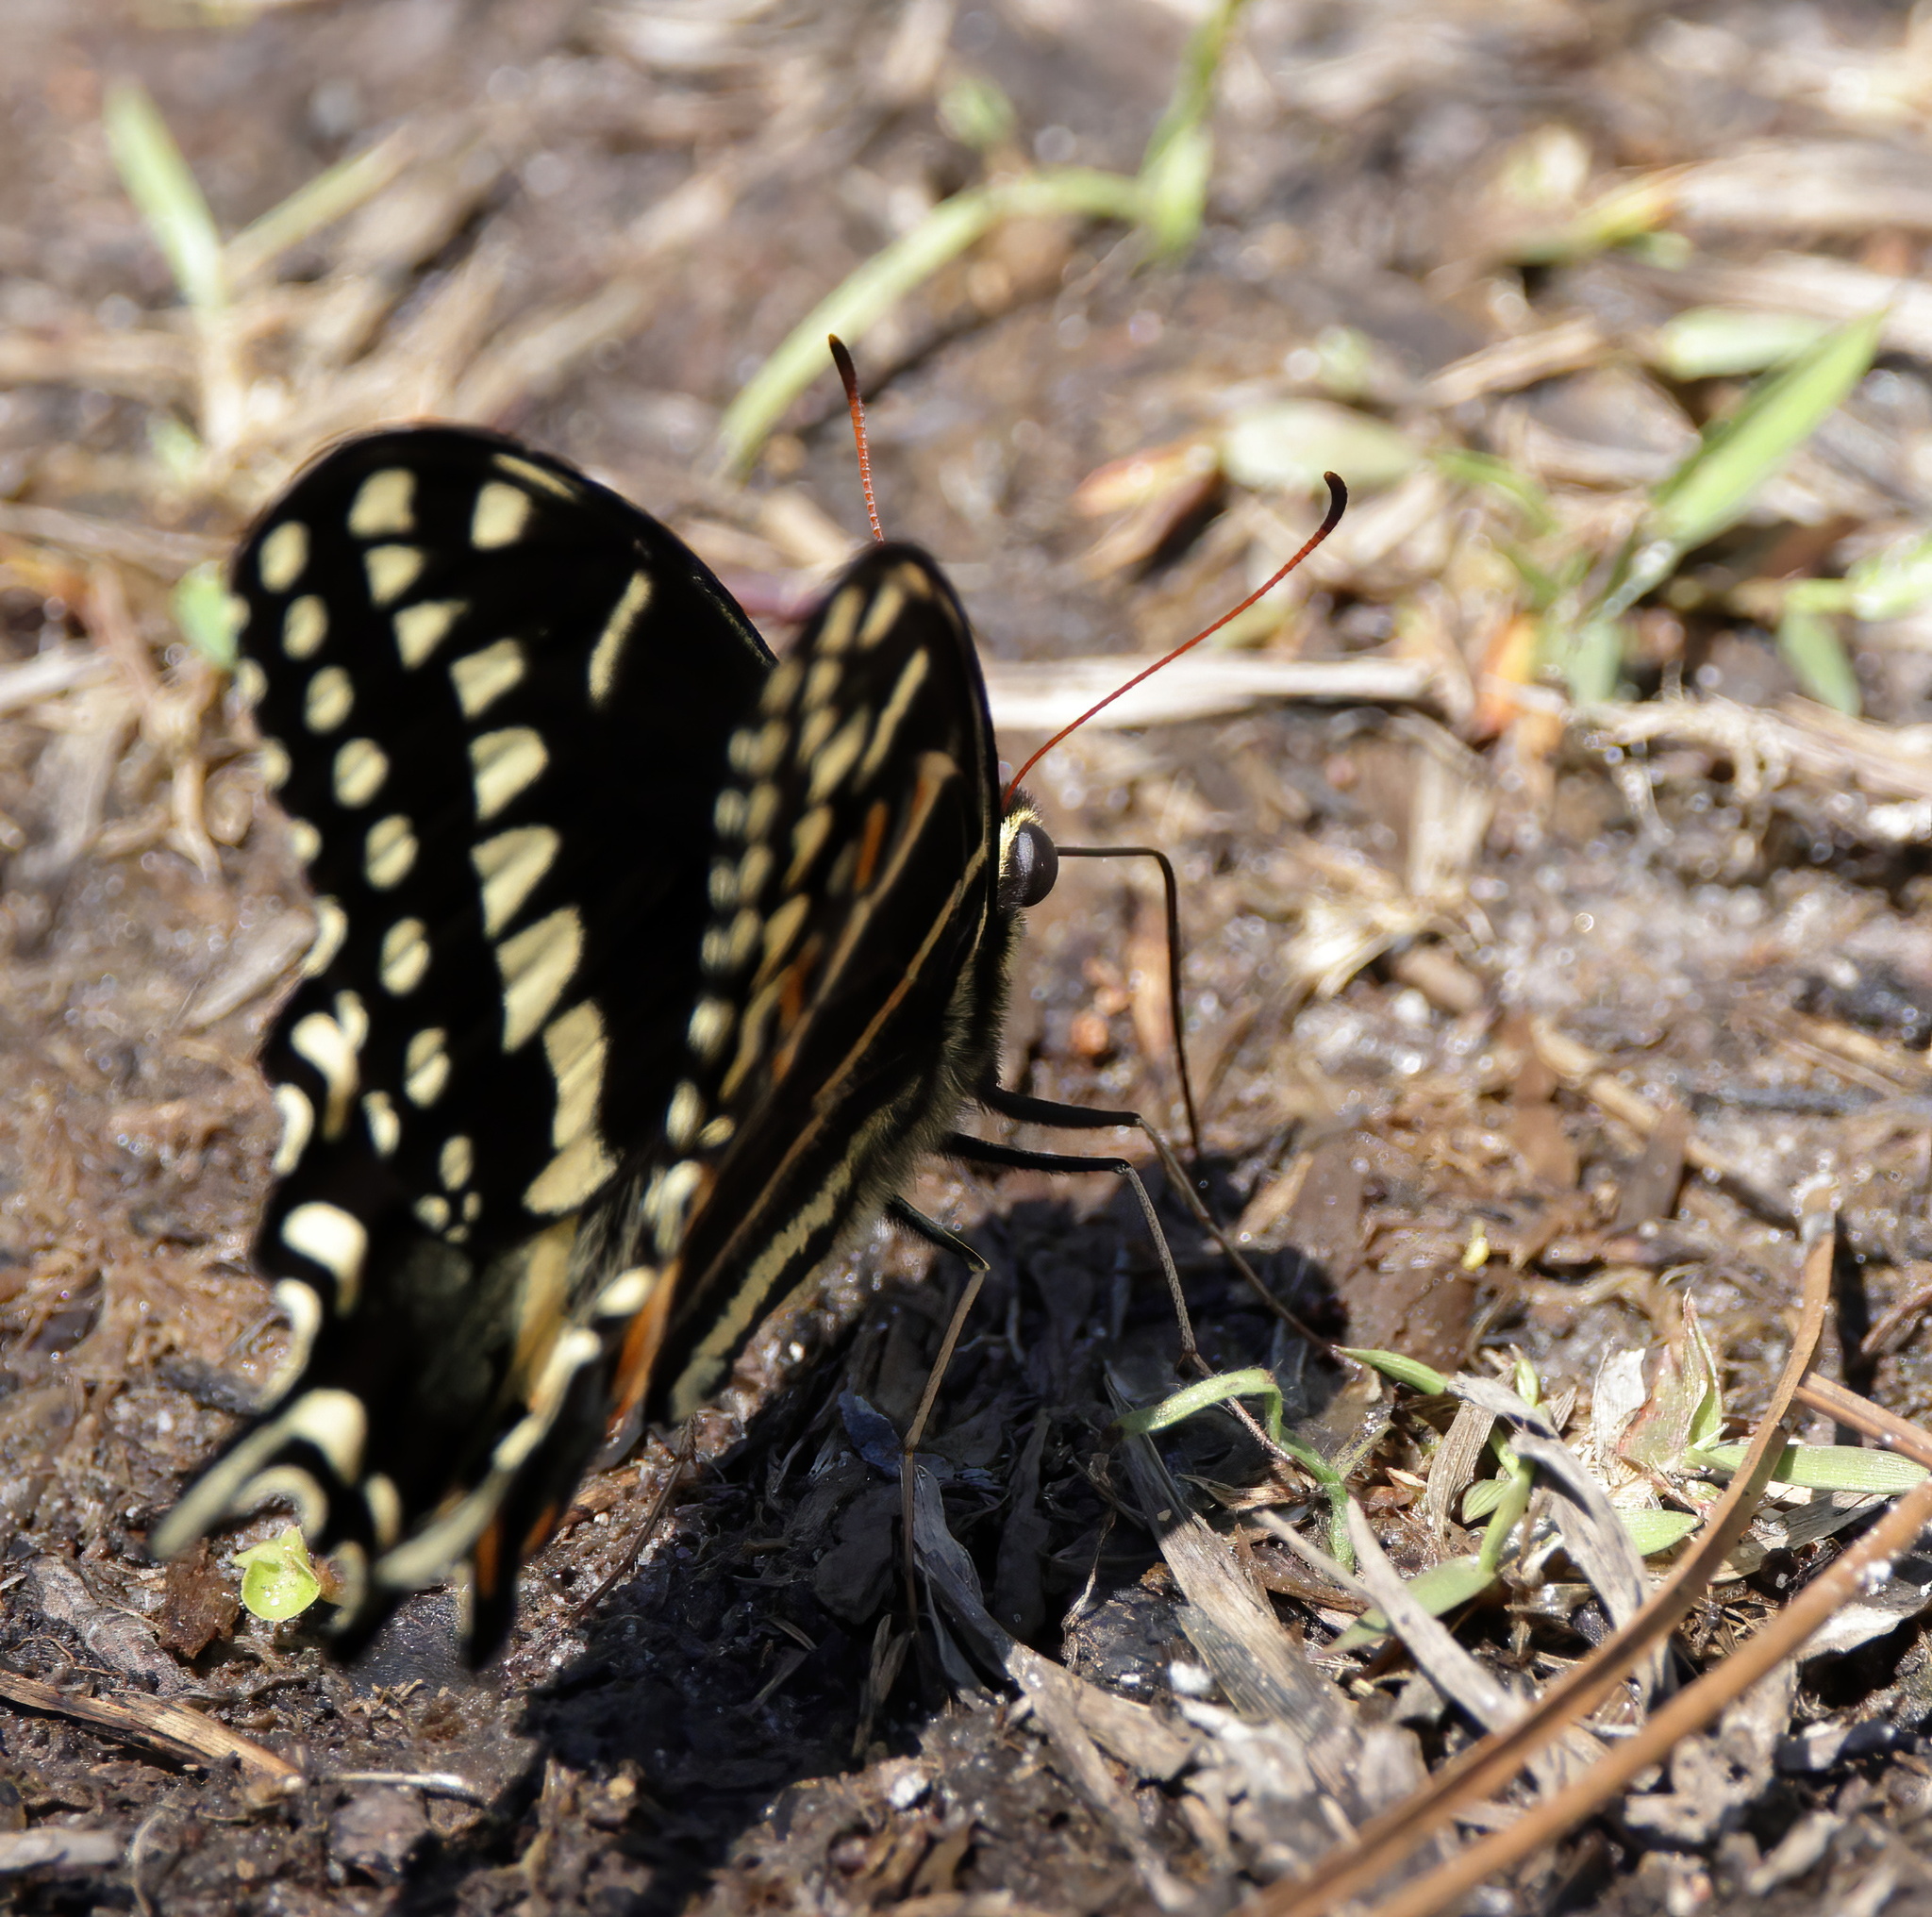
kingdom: Animalia
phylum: Arthropoda
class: Insecta
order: Lepidoptera
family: Papilionidae
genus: Papilio
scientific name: Papilio palamedes
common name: Palamedes swallowtail
